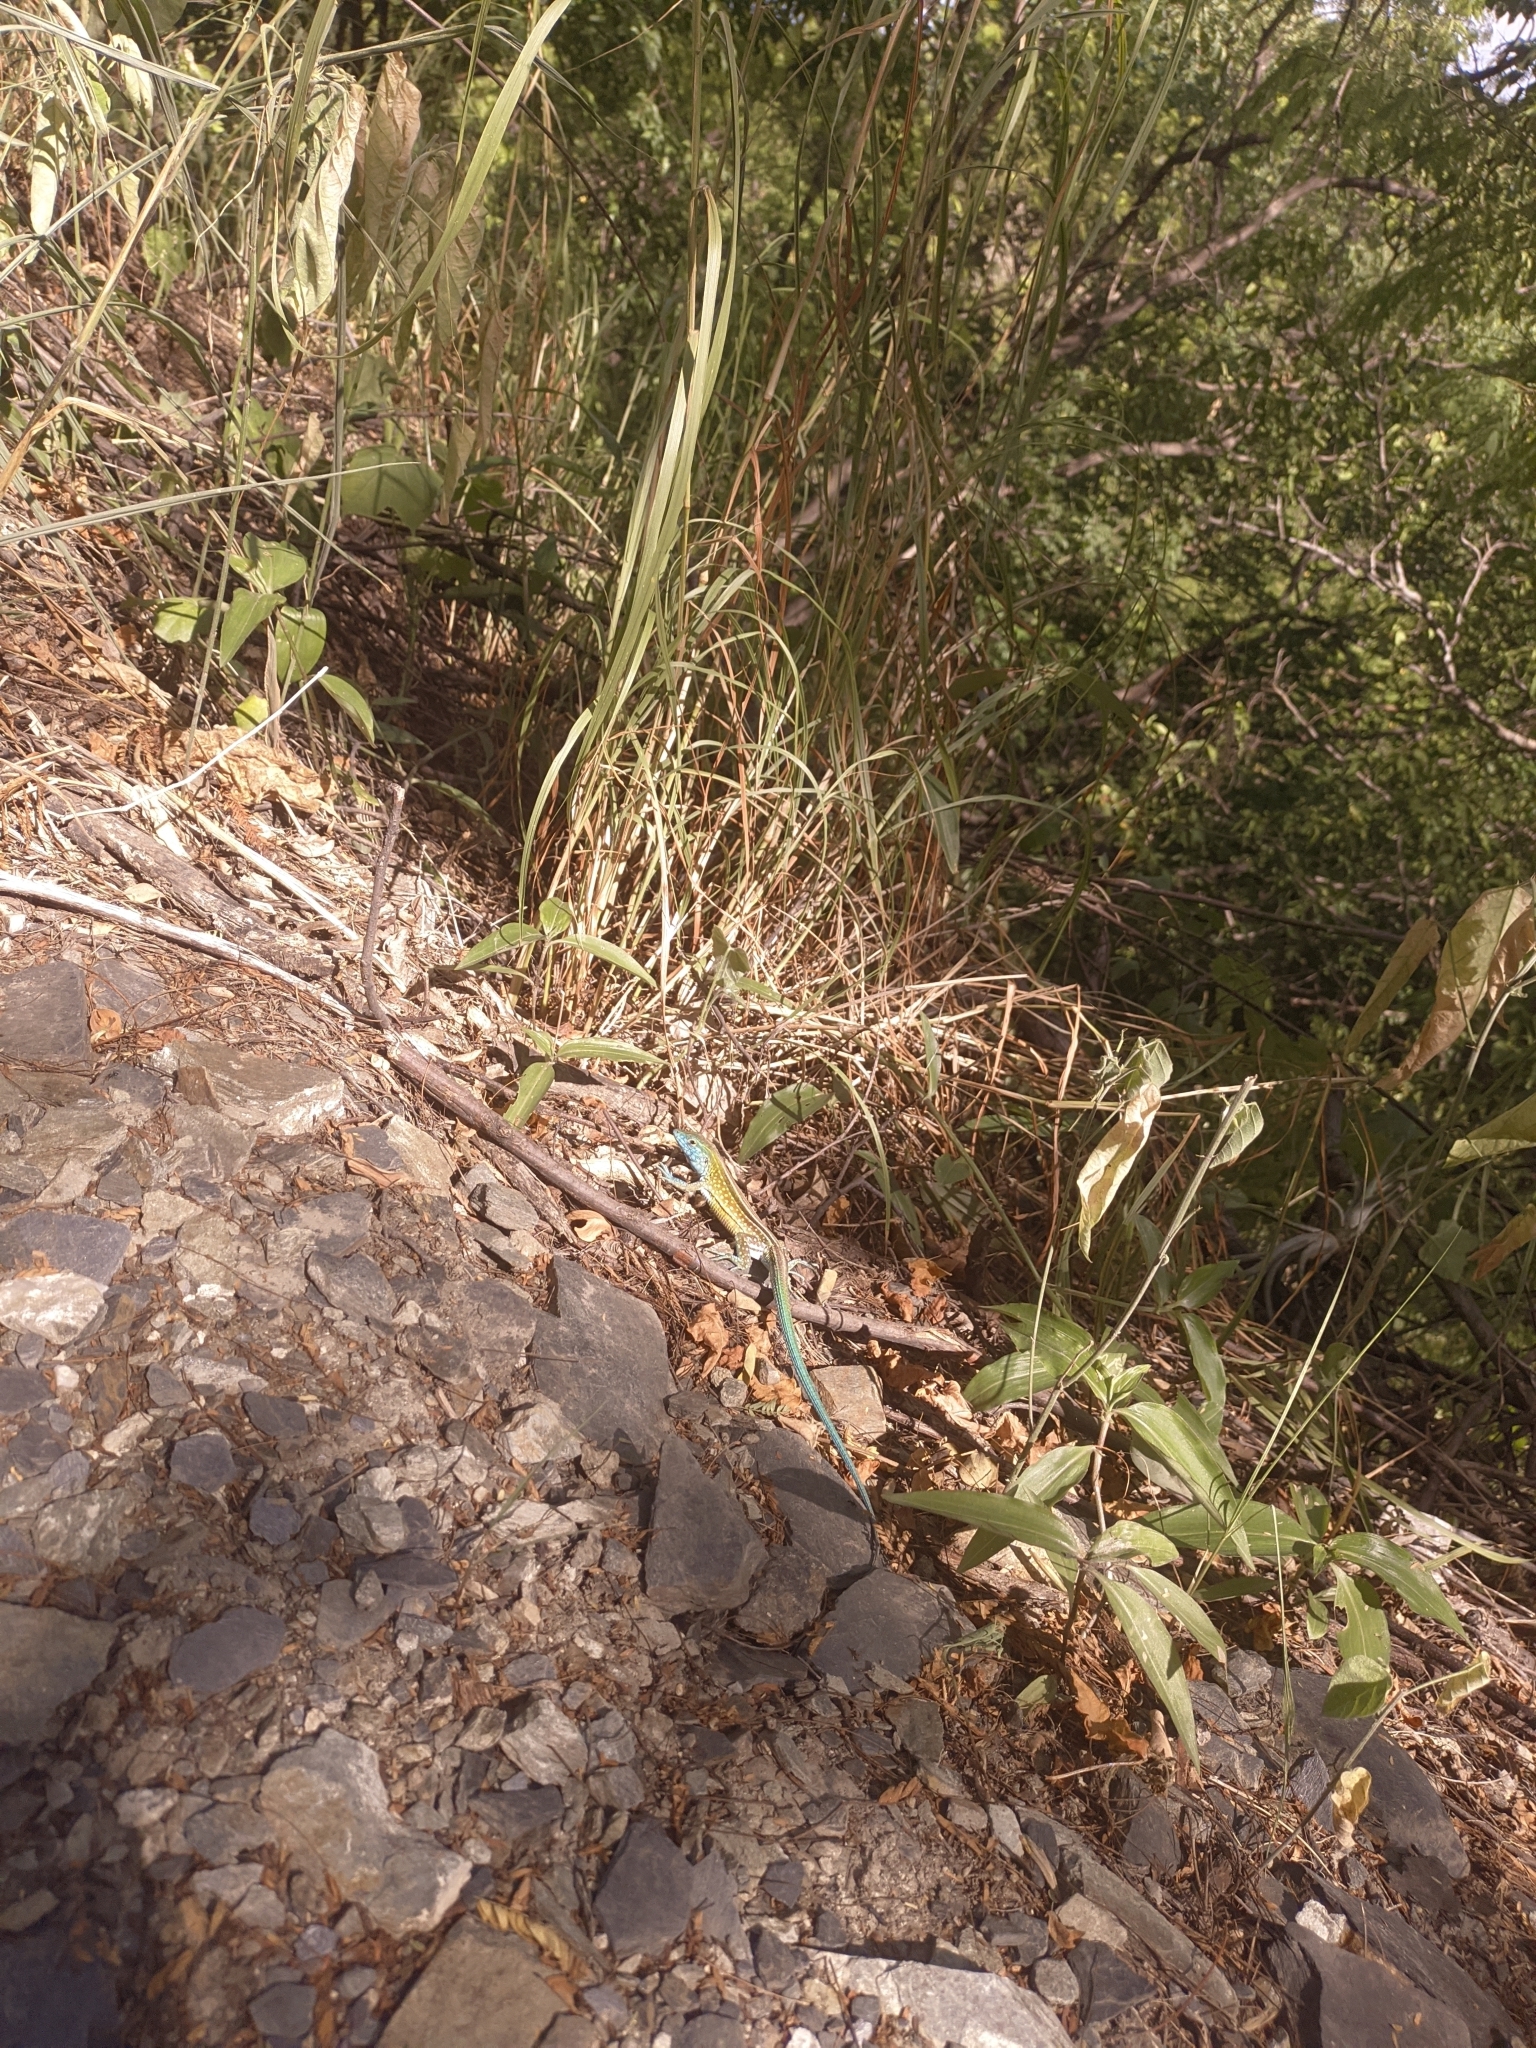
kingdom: Animalia
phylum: Chordata
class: Squamata
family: Teiidae
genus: Cnemidophorus
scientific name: Cnemidophorus gaigei
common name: Gaige’s rainbow lizard
